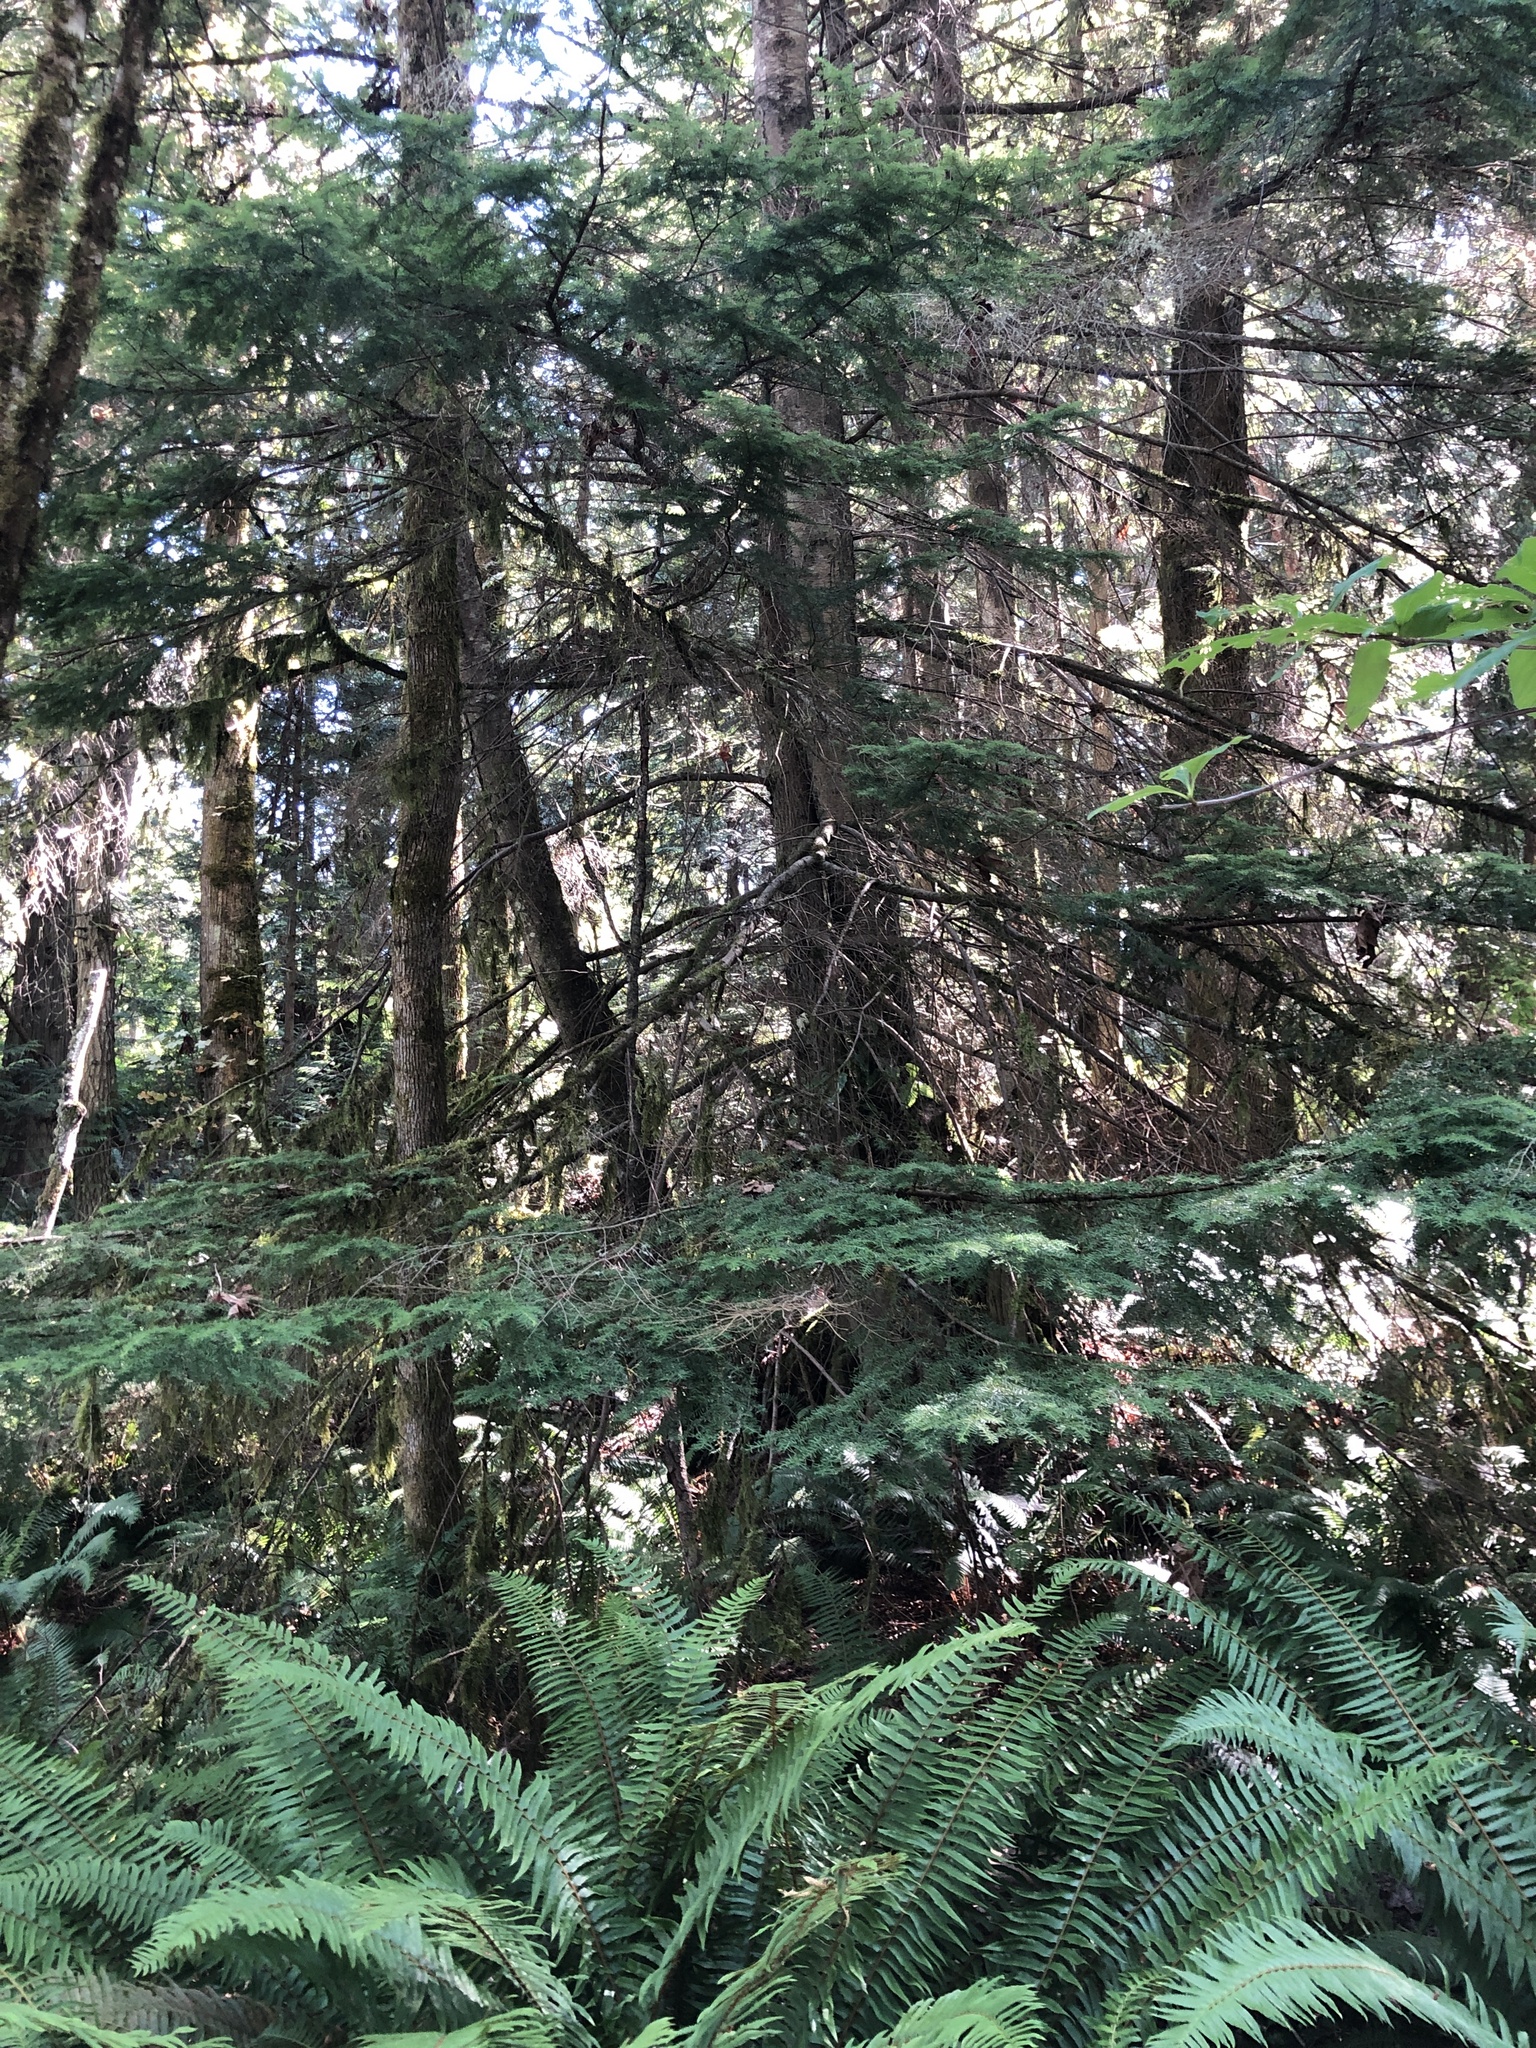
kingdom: Plantae
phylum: Tracheophyta
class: Pinopsida
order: Pinales
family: Pinaceae
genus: Tsuga
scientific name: Tsuga heterophylla
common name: Western hemlock
